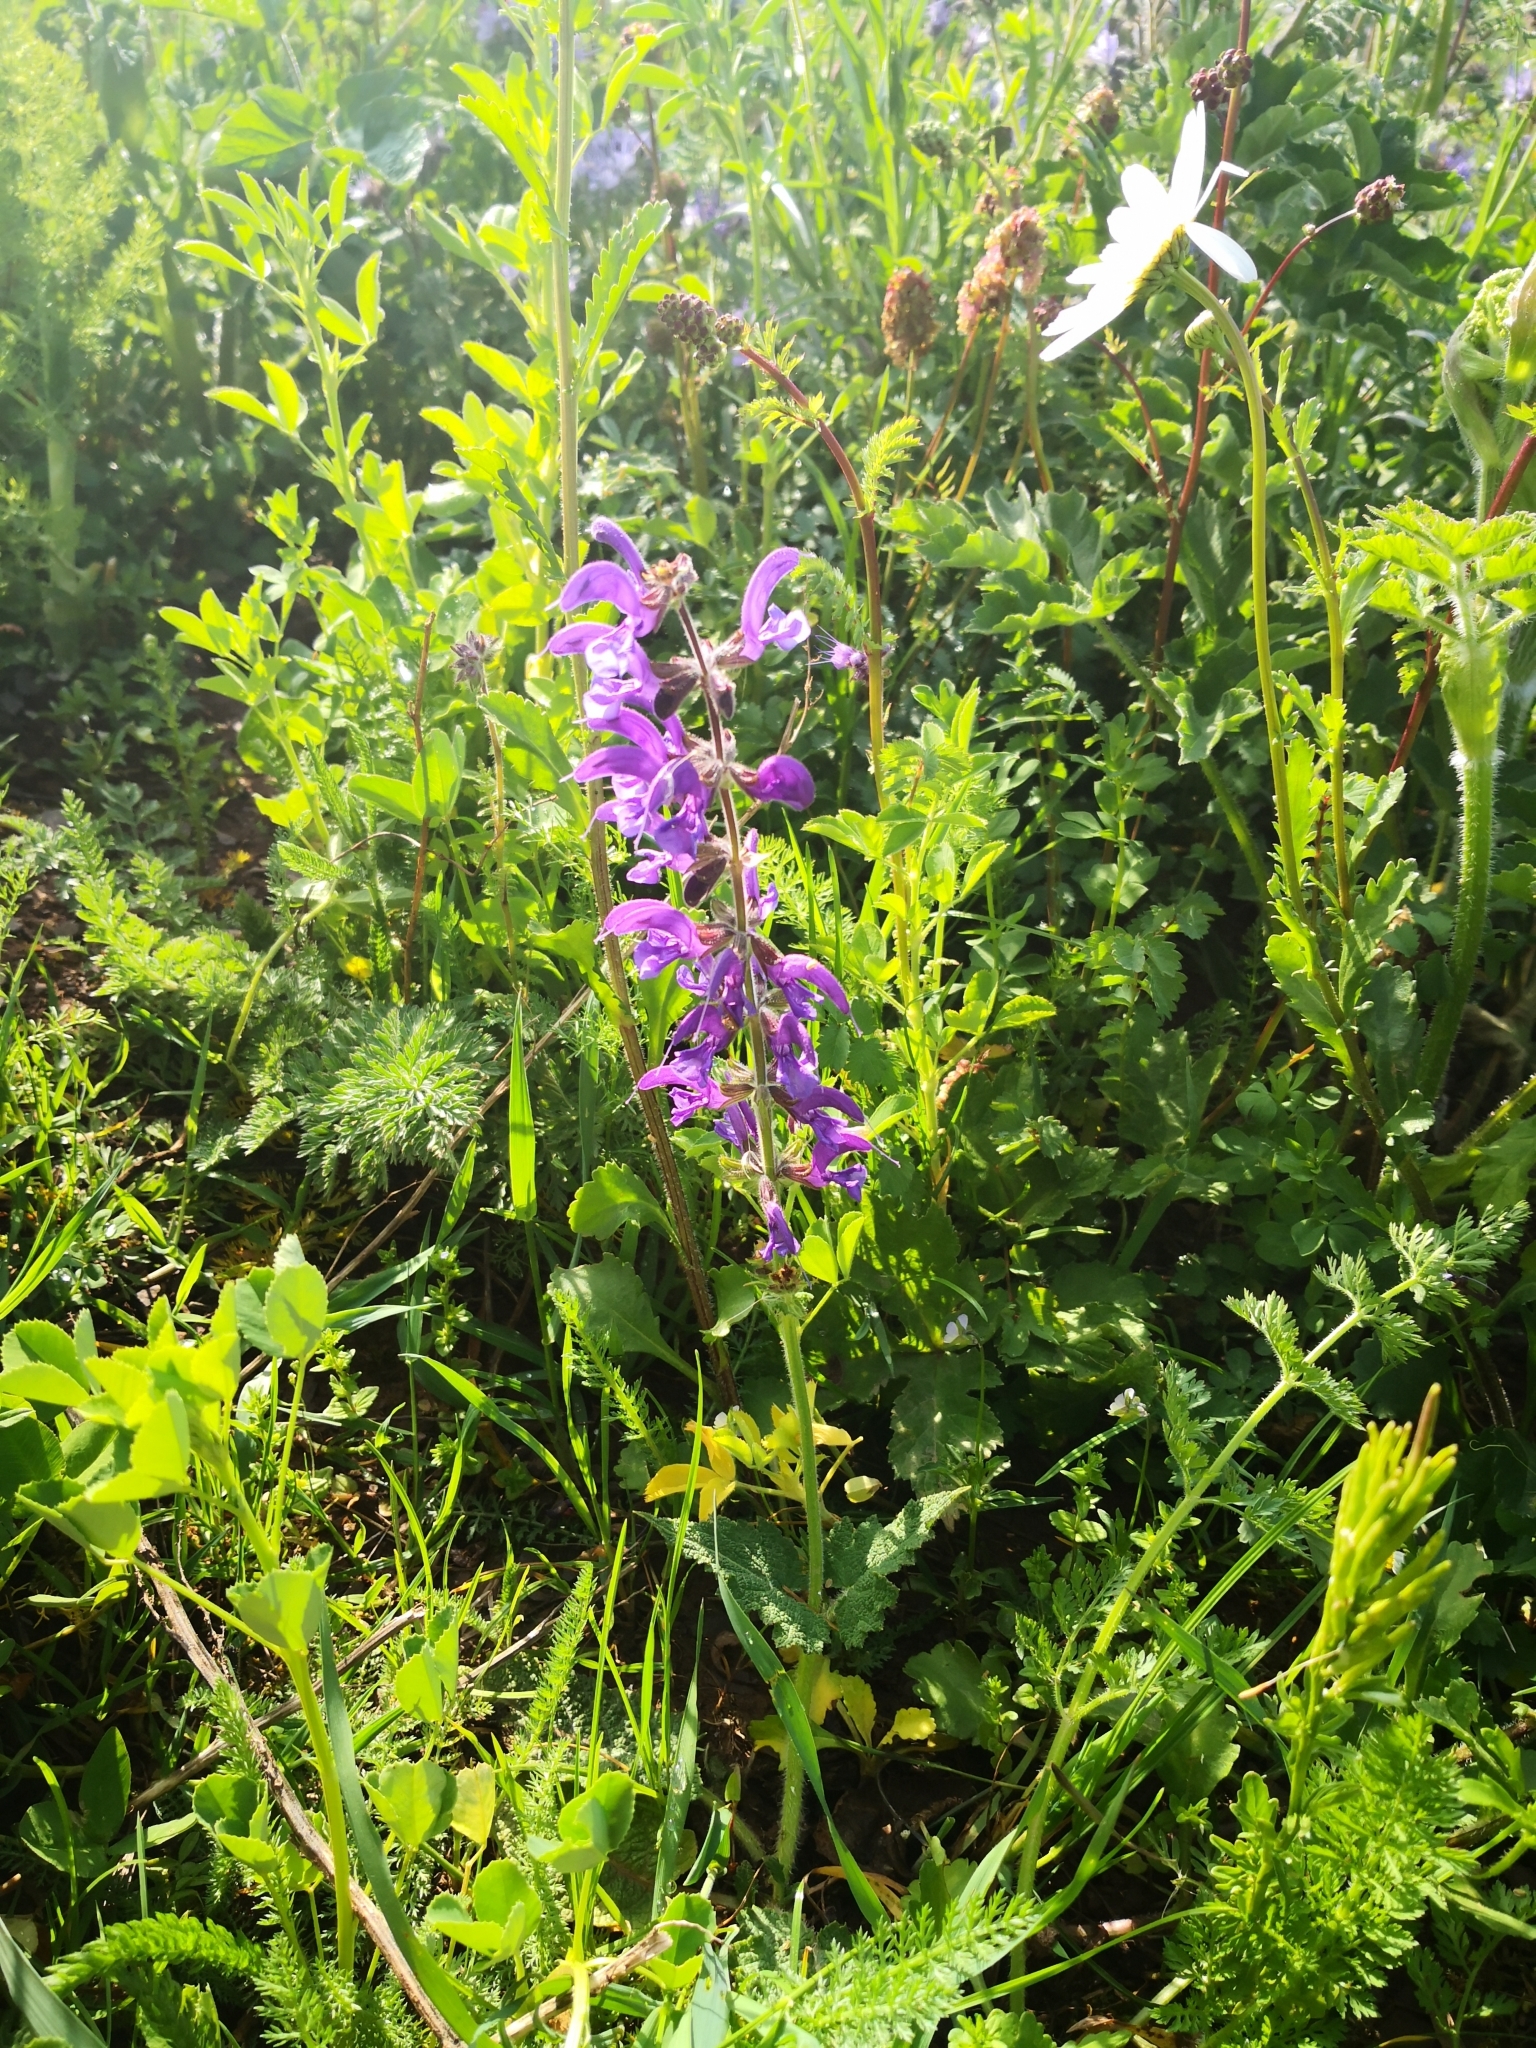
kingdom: Plantae
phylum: Tracheophyta
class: Magnoliopsida
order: Lamiales
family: Lamiaceae
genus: Salvia
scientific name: Salvia pratensis
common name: Meadow sage
